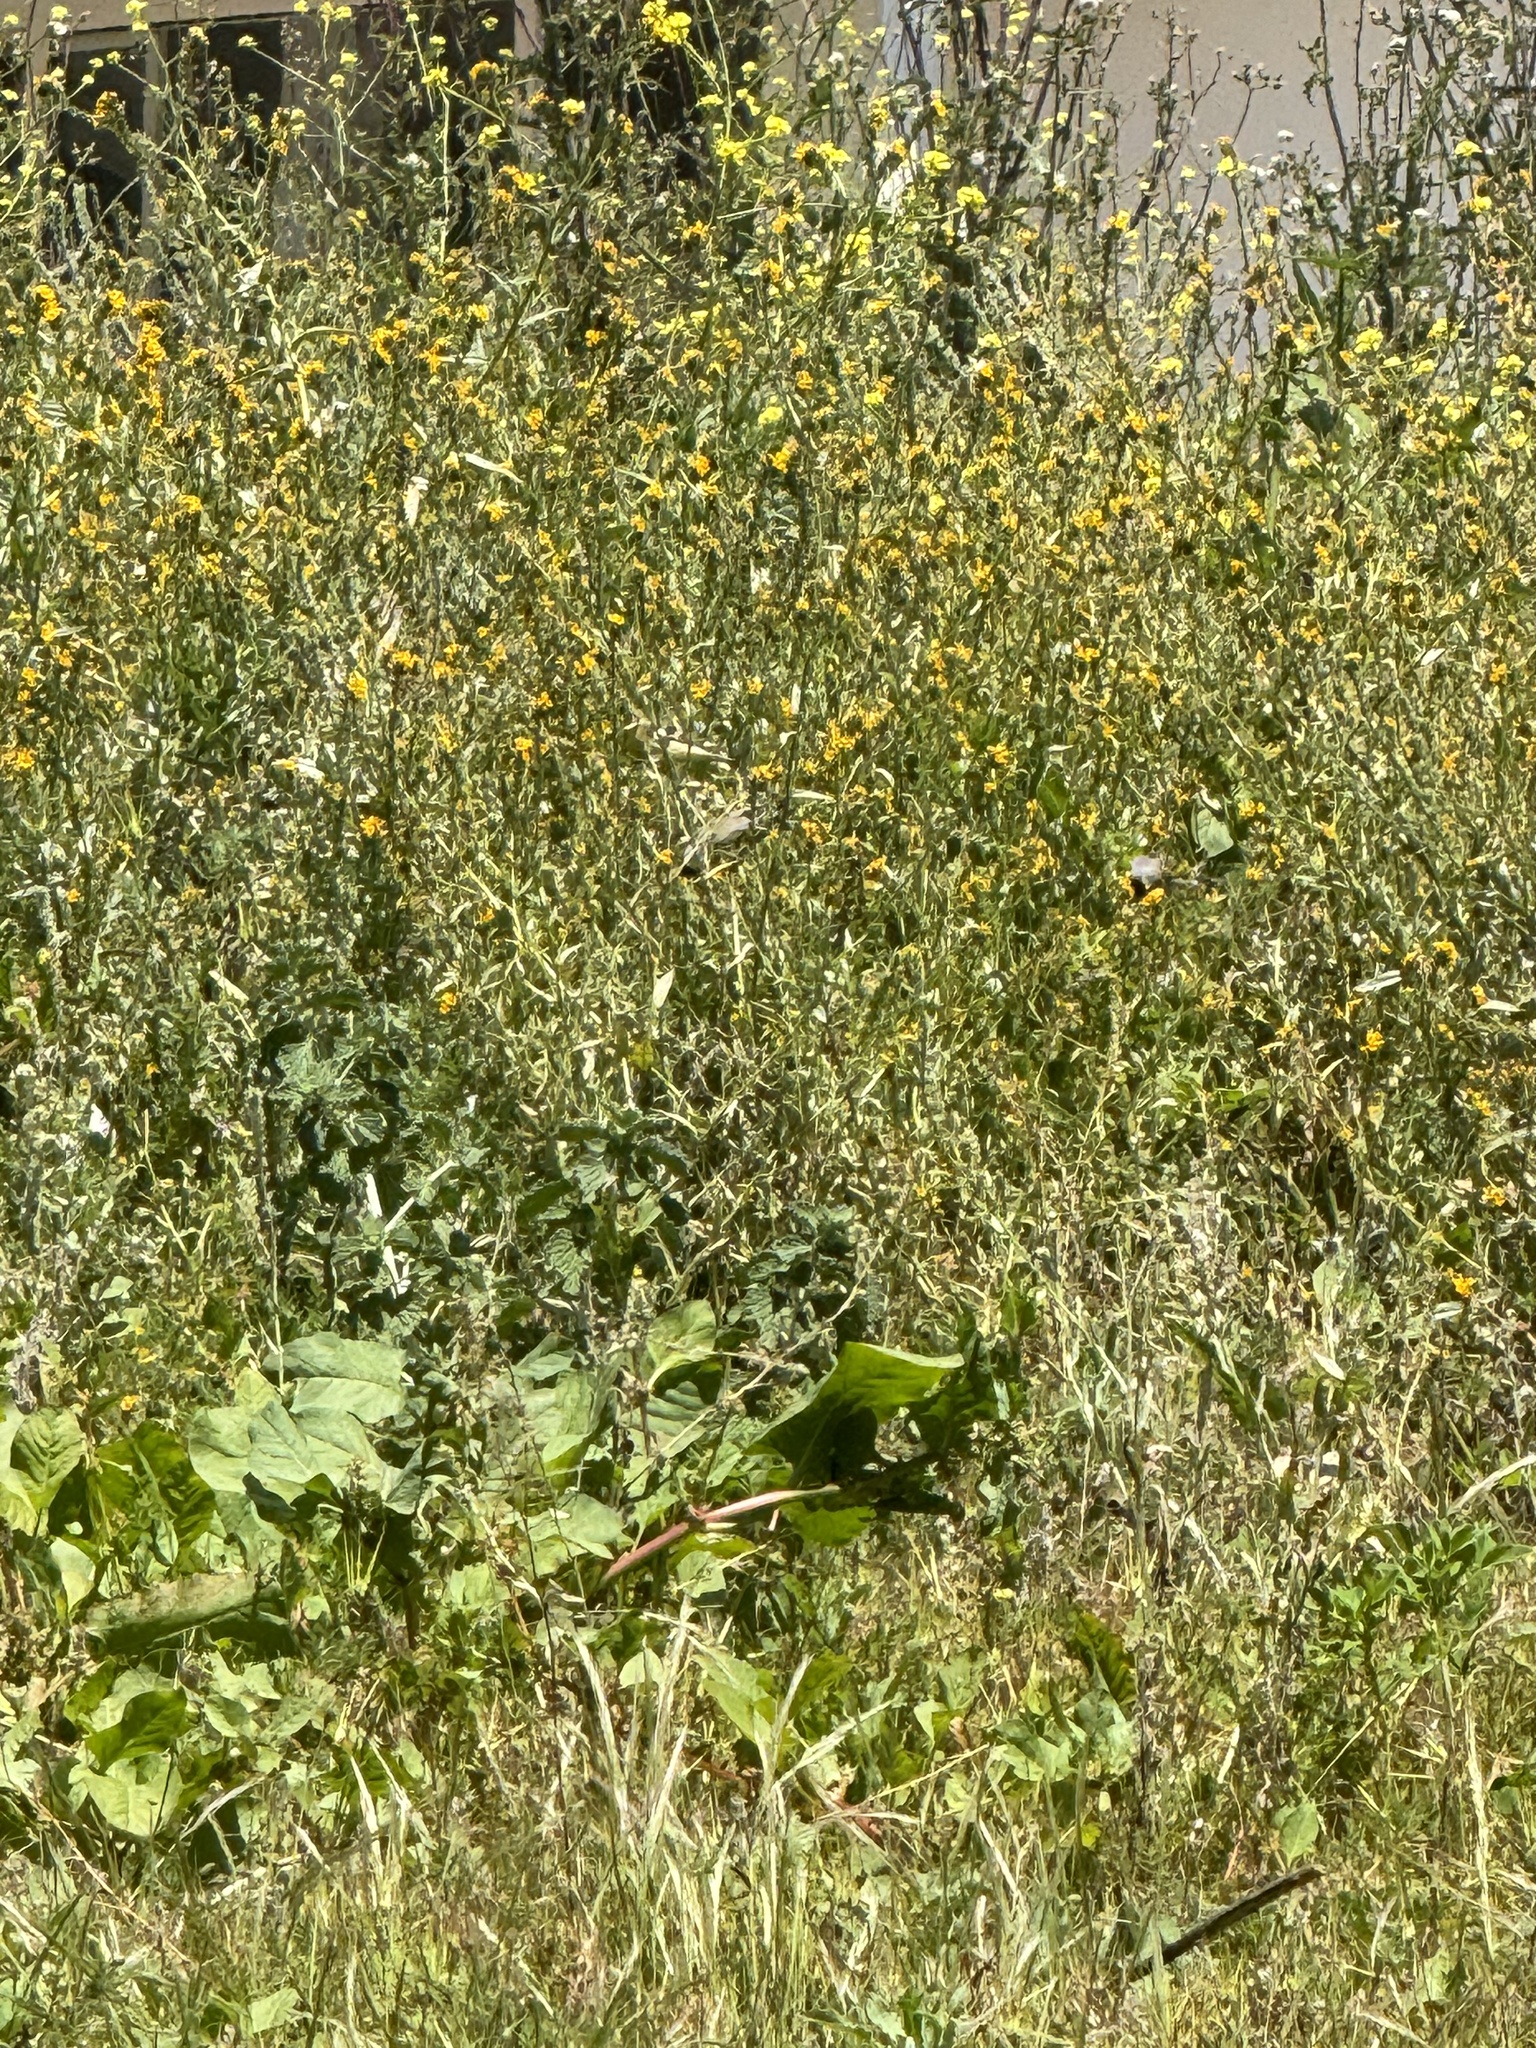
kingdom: Animalia
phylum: Chordata
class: Aves
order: Passeriformes
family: Fringillidae
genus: Spinus
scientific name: Spinus lawrencei
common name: Lawrence's goldfinch
